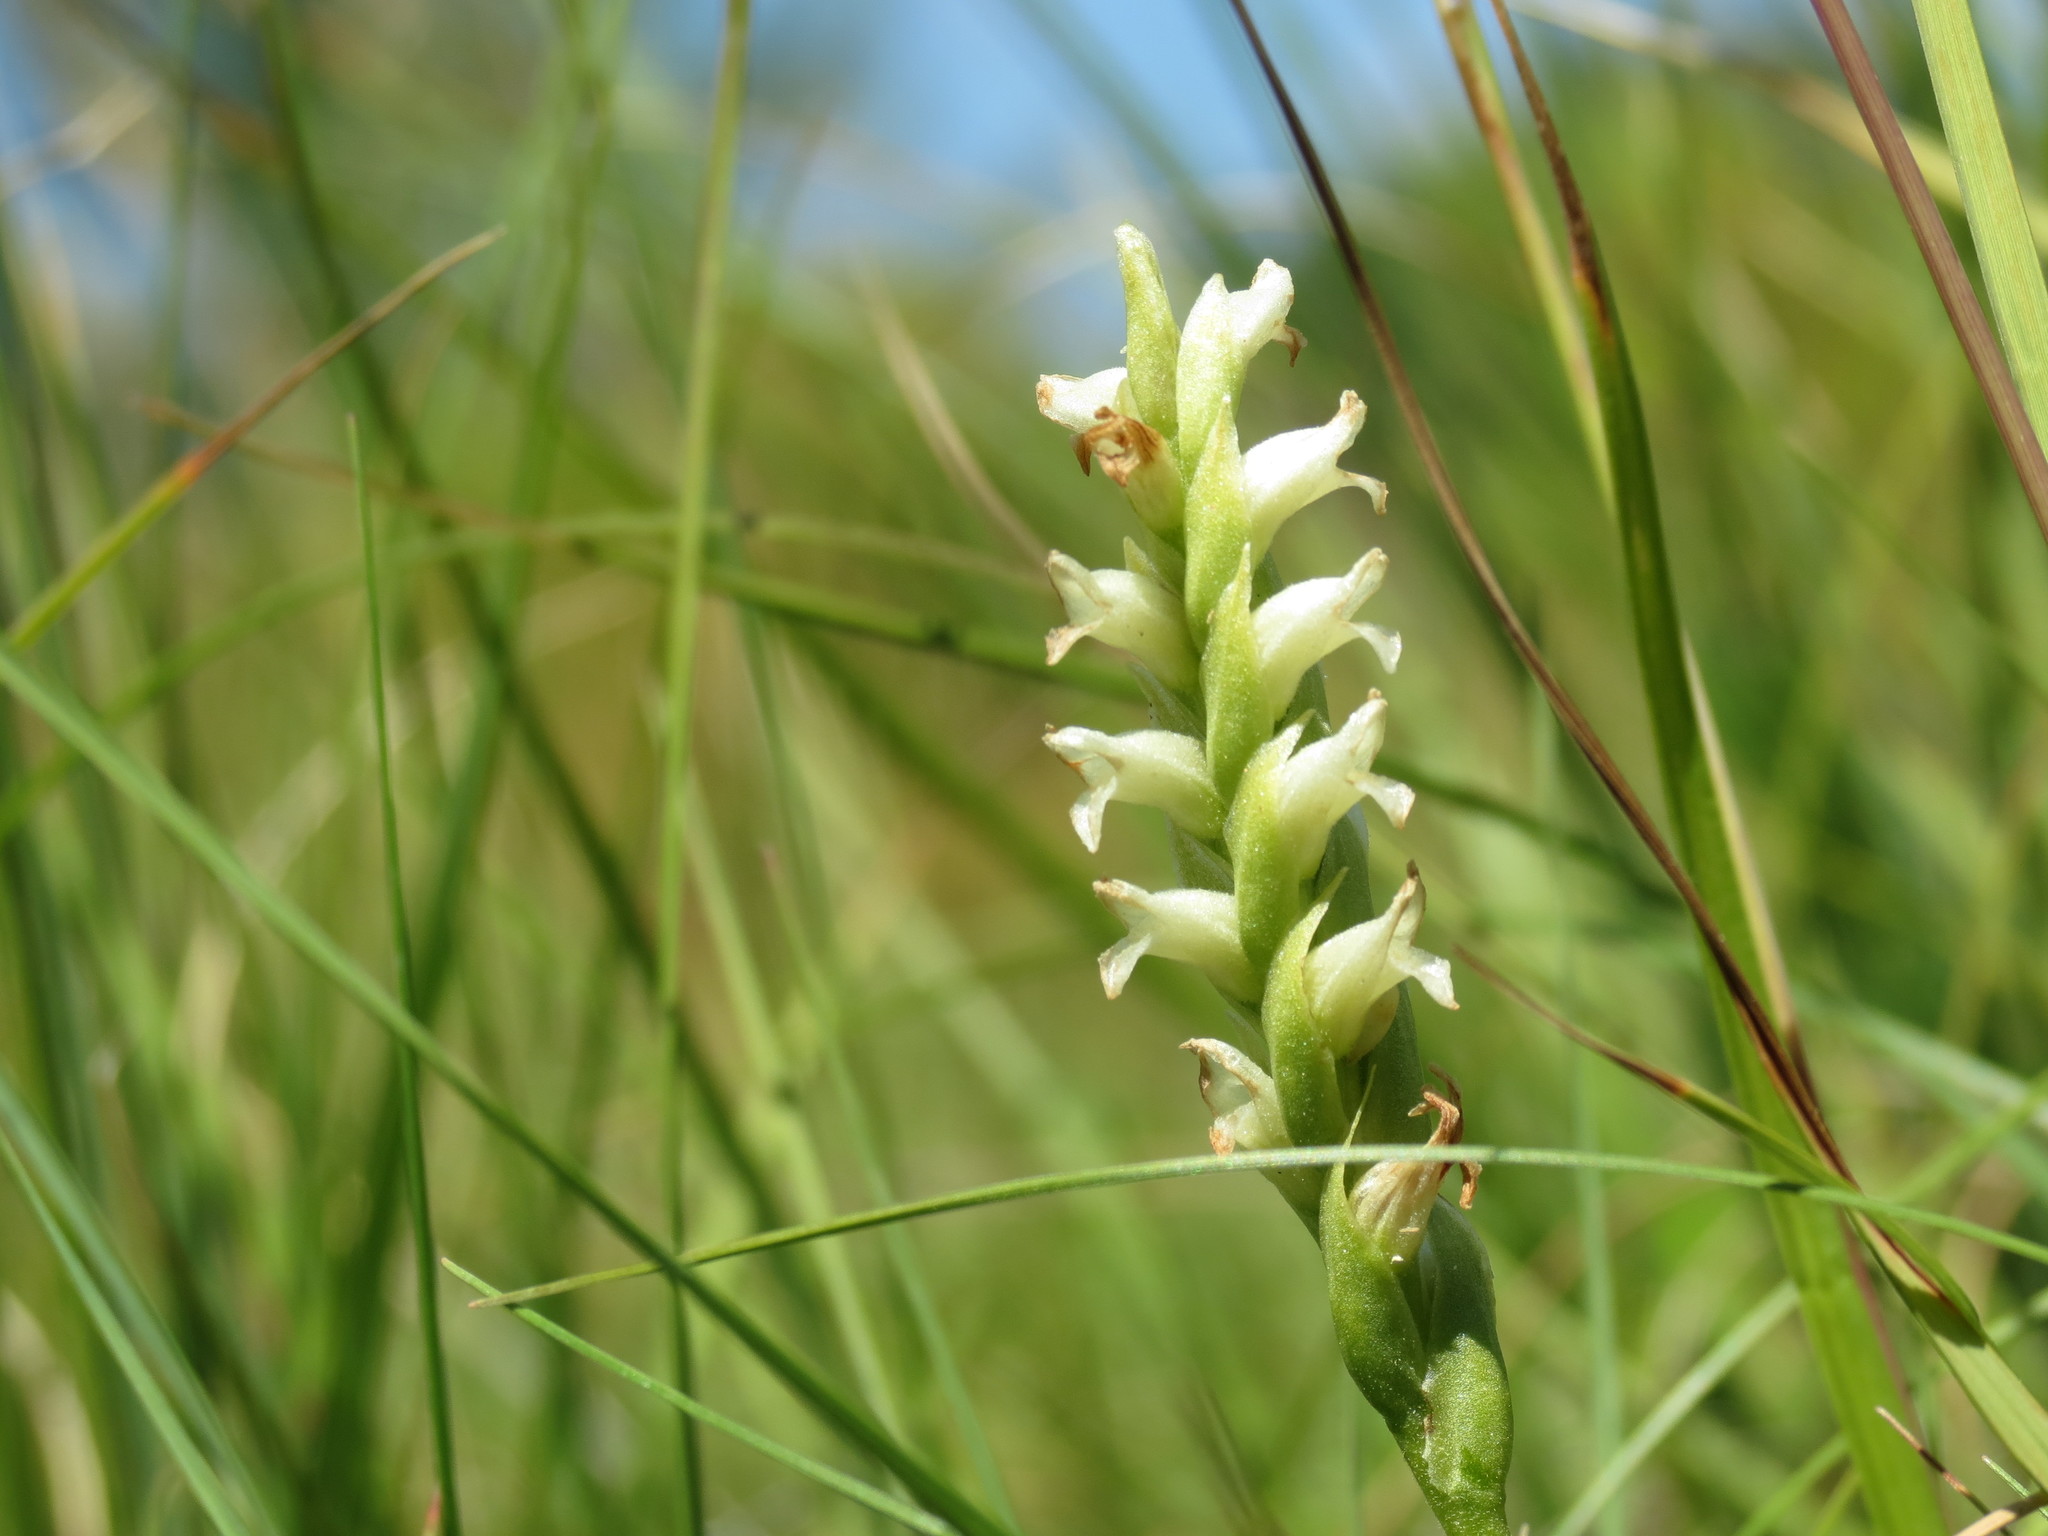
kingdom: Plantae
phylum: Tracheophyta
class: Liliopsida
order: Asparagales
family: Orchidaceae
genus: Spiranthes
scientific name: Spiranthes romanzoffiana
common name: Irish lady's-tresses
